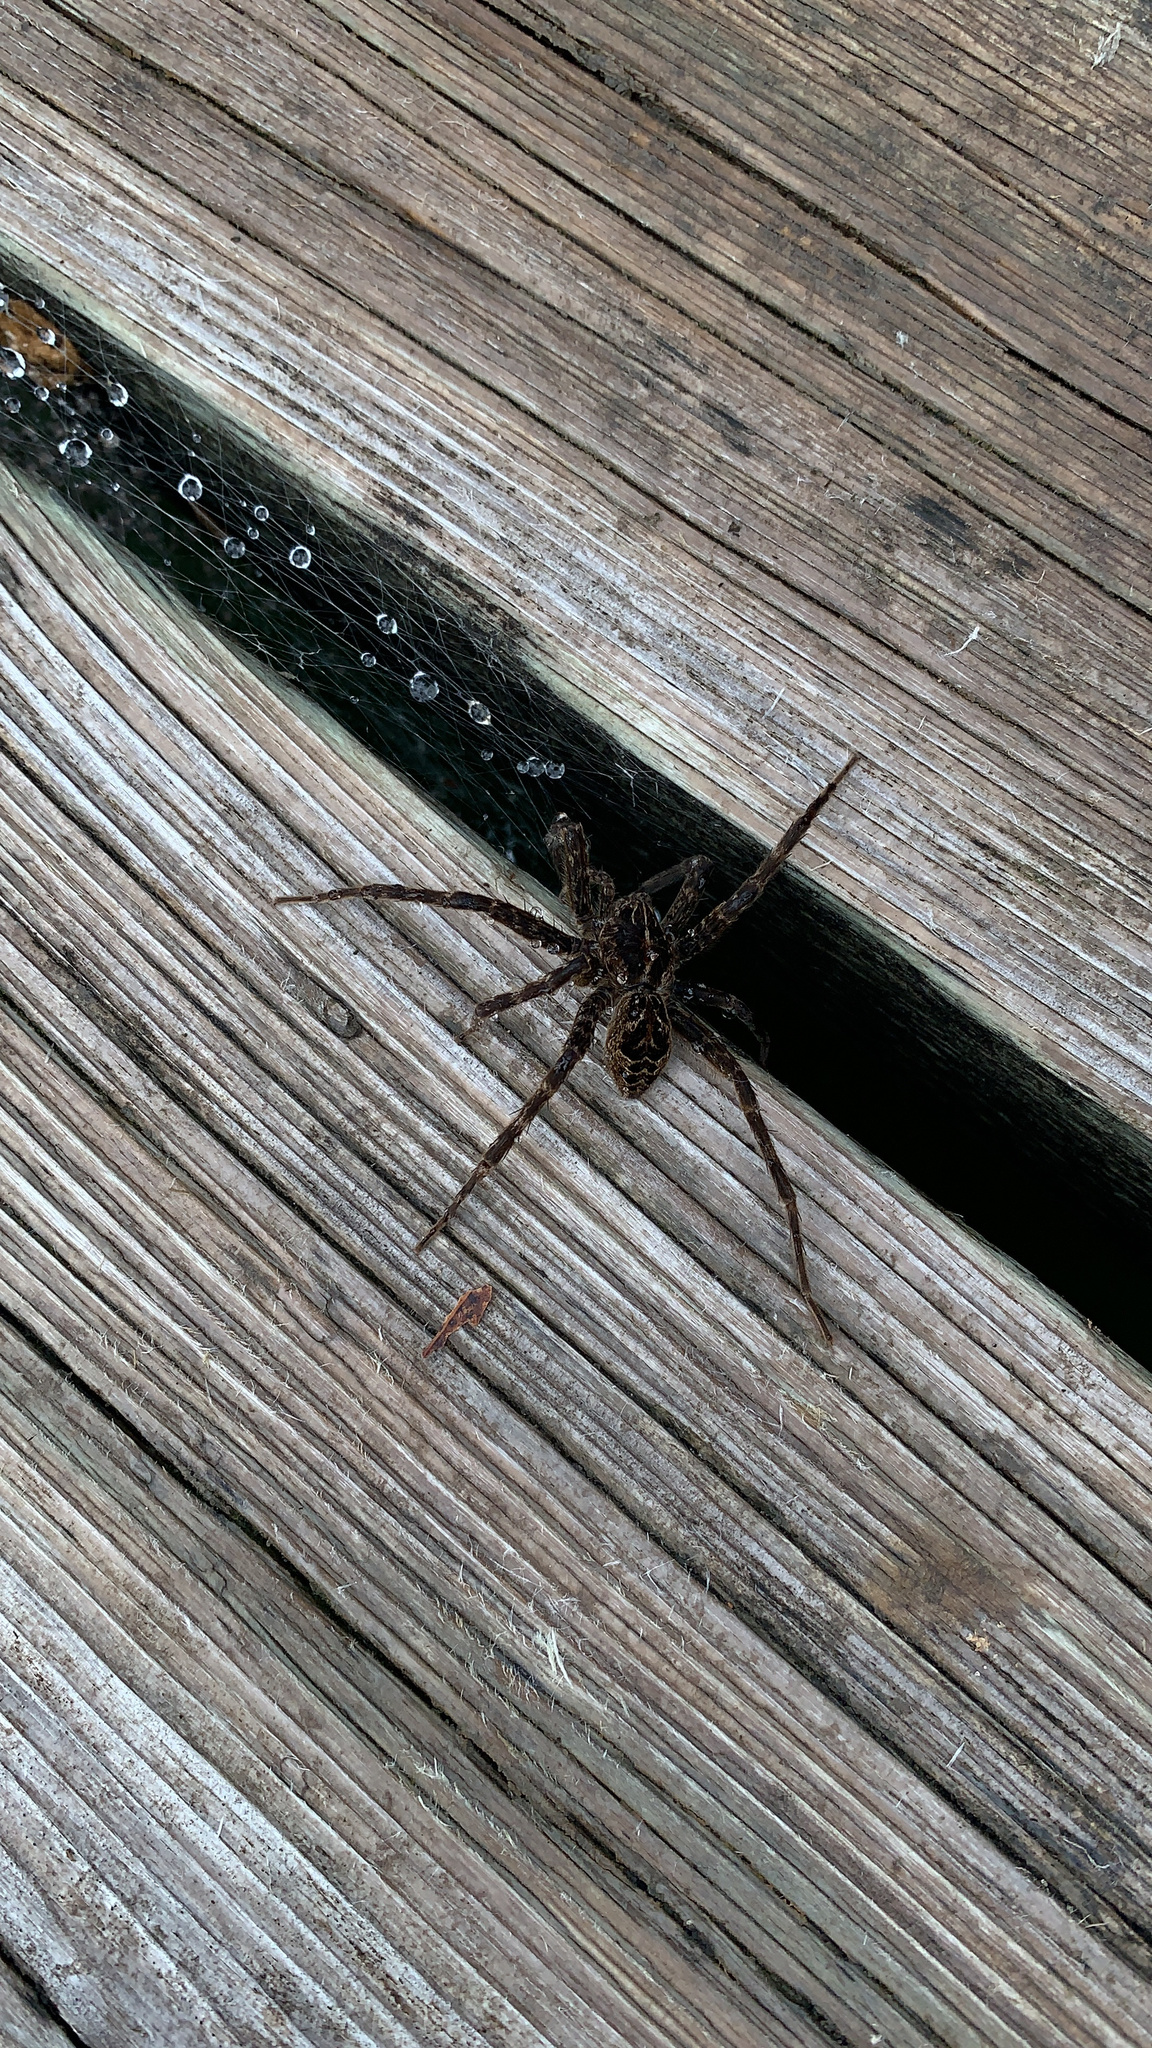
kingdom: Animalia
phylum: Arthropoda
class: Arachnida
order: Araneae
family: Pisauridae
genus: Dolomedes
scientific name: Dolomedes scriptus
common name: Striped fishing spider
